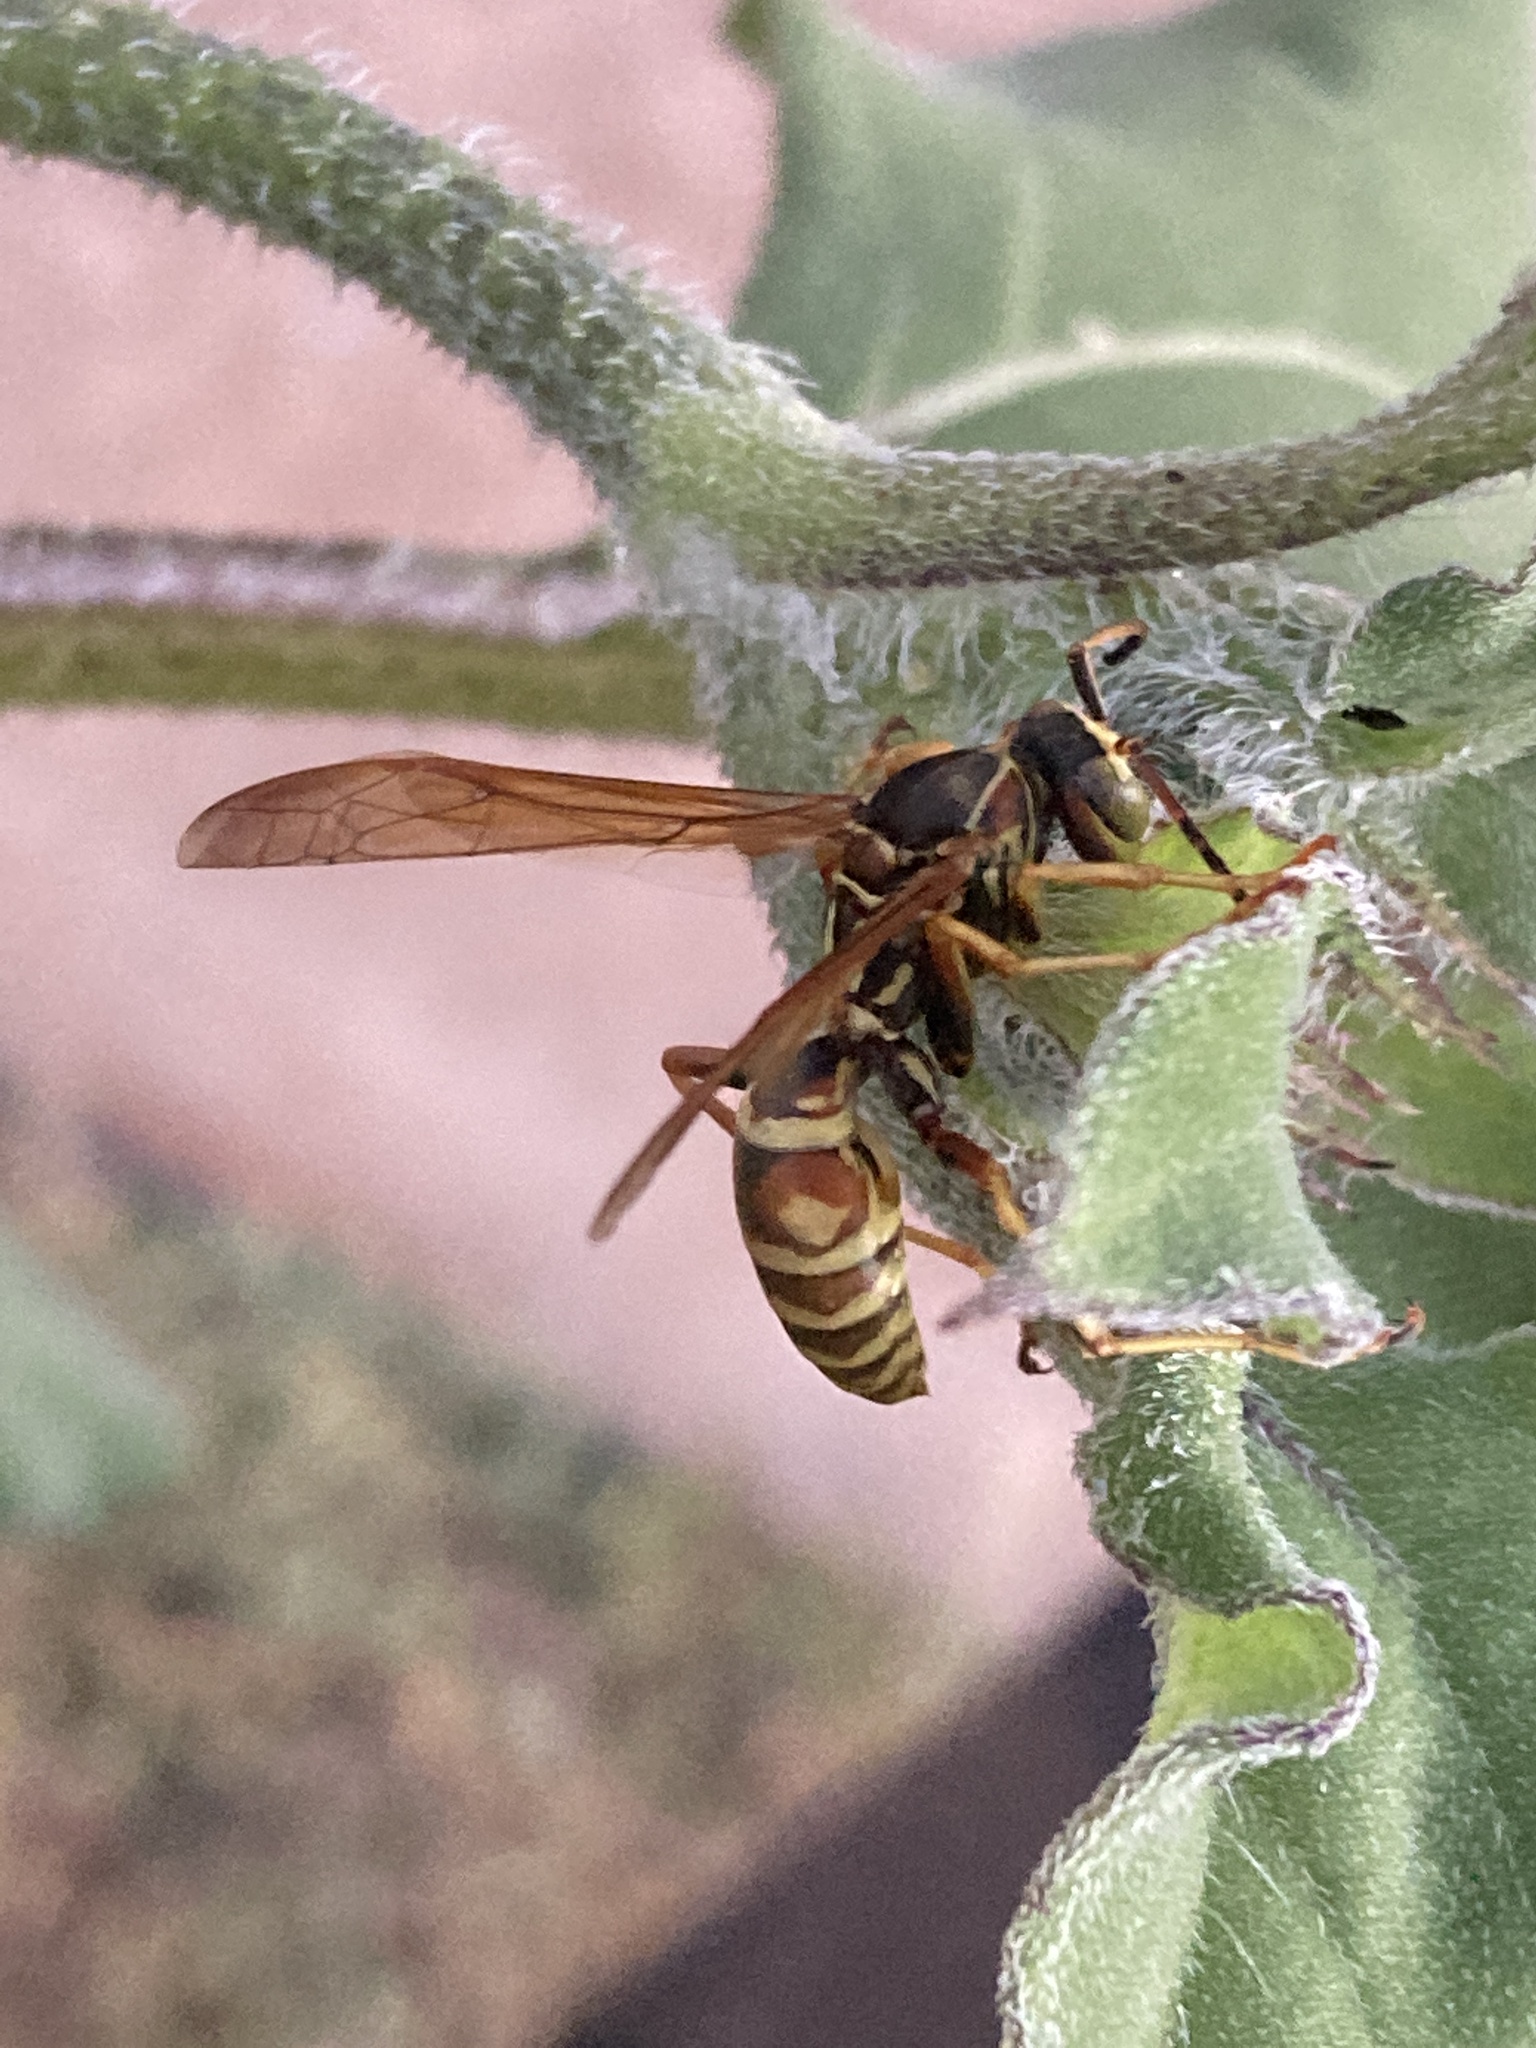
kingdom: Animalia
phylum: Arthropoda
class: Insecta
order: Hymenoptera
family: Eumenidae
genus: Polistes
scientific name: Polistes fuscatus
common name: Dark paper wasp
